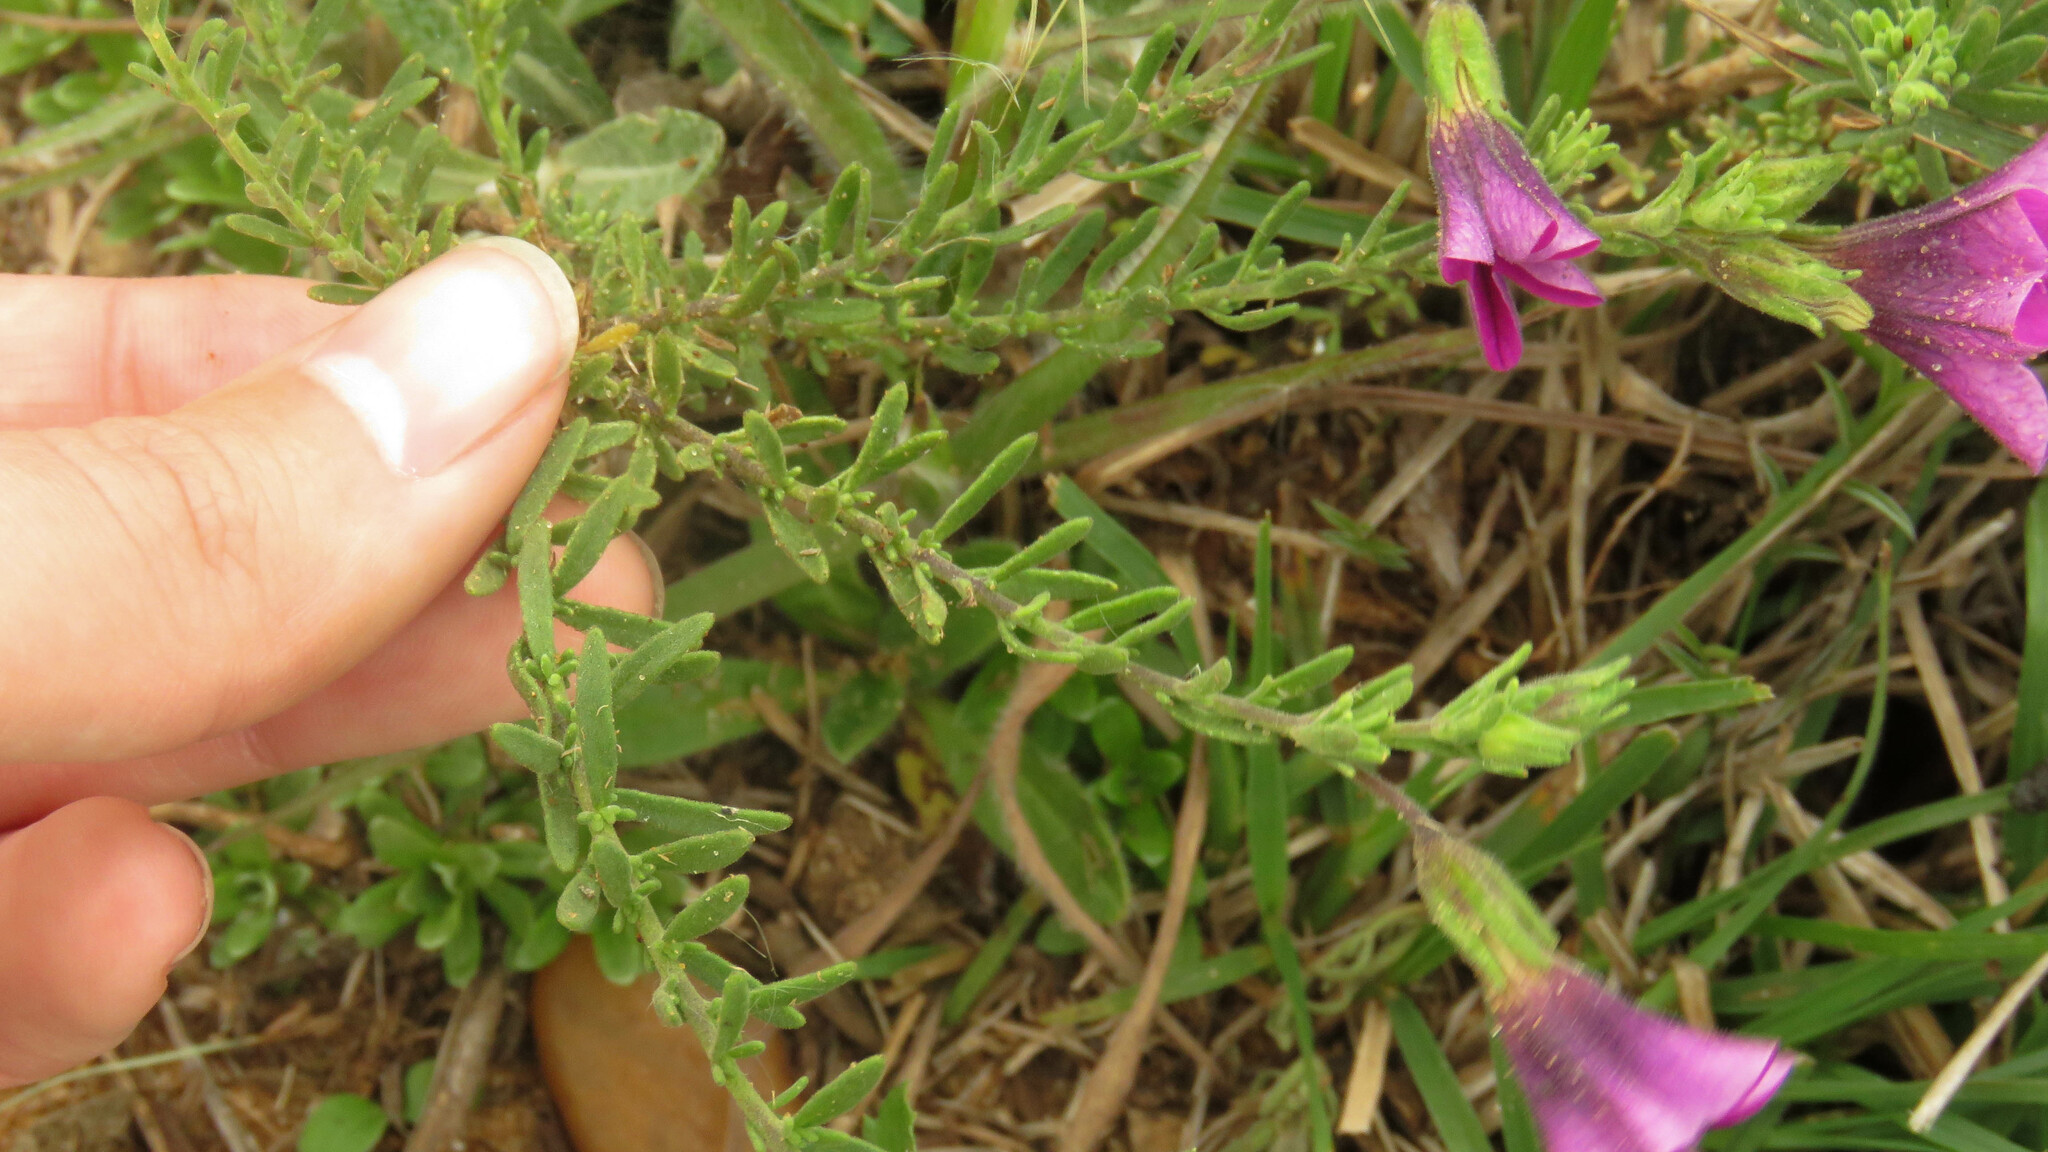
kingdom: Plantae
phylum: Tracheophyta
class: Magnoliopsida
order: Solanales
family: Solanaceae
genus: Calibrachoa
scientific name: Calibrachoa thymifolia
